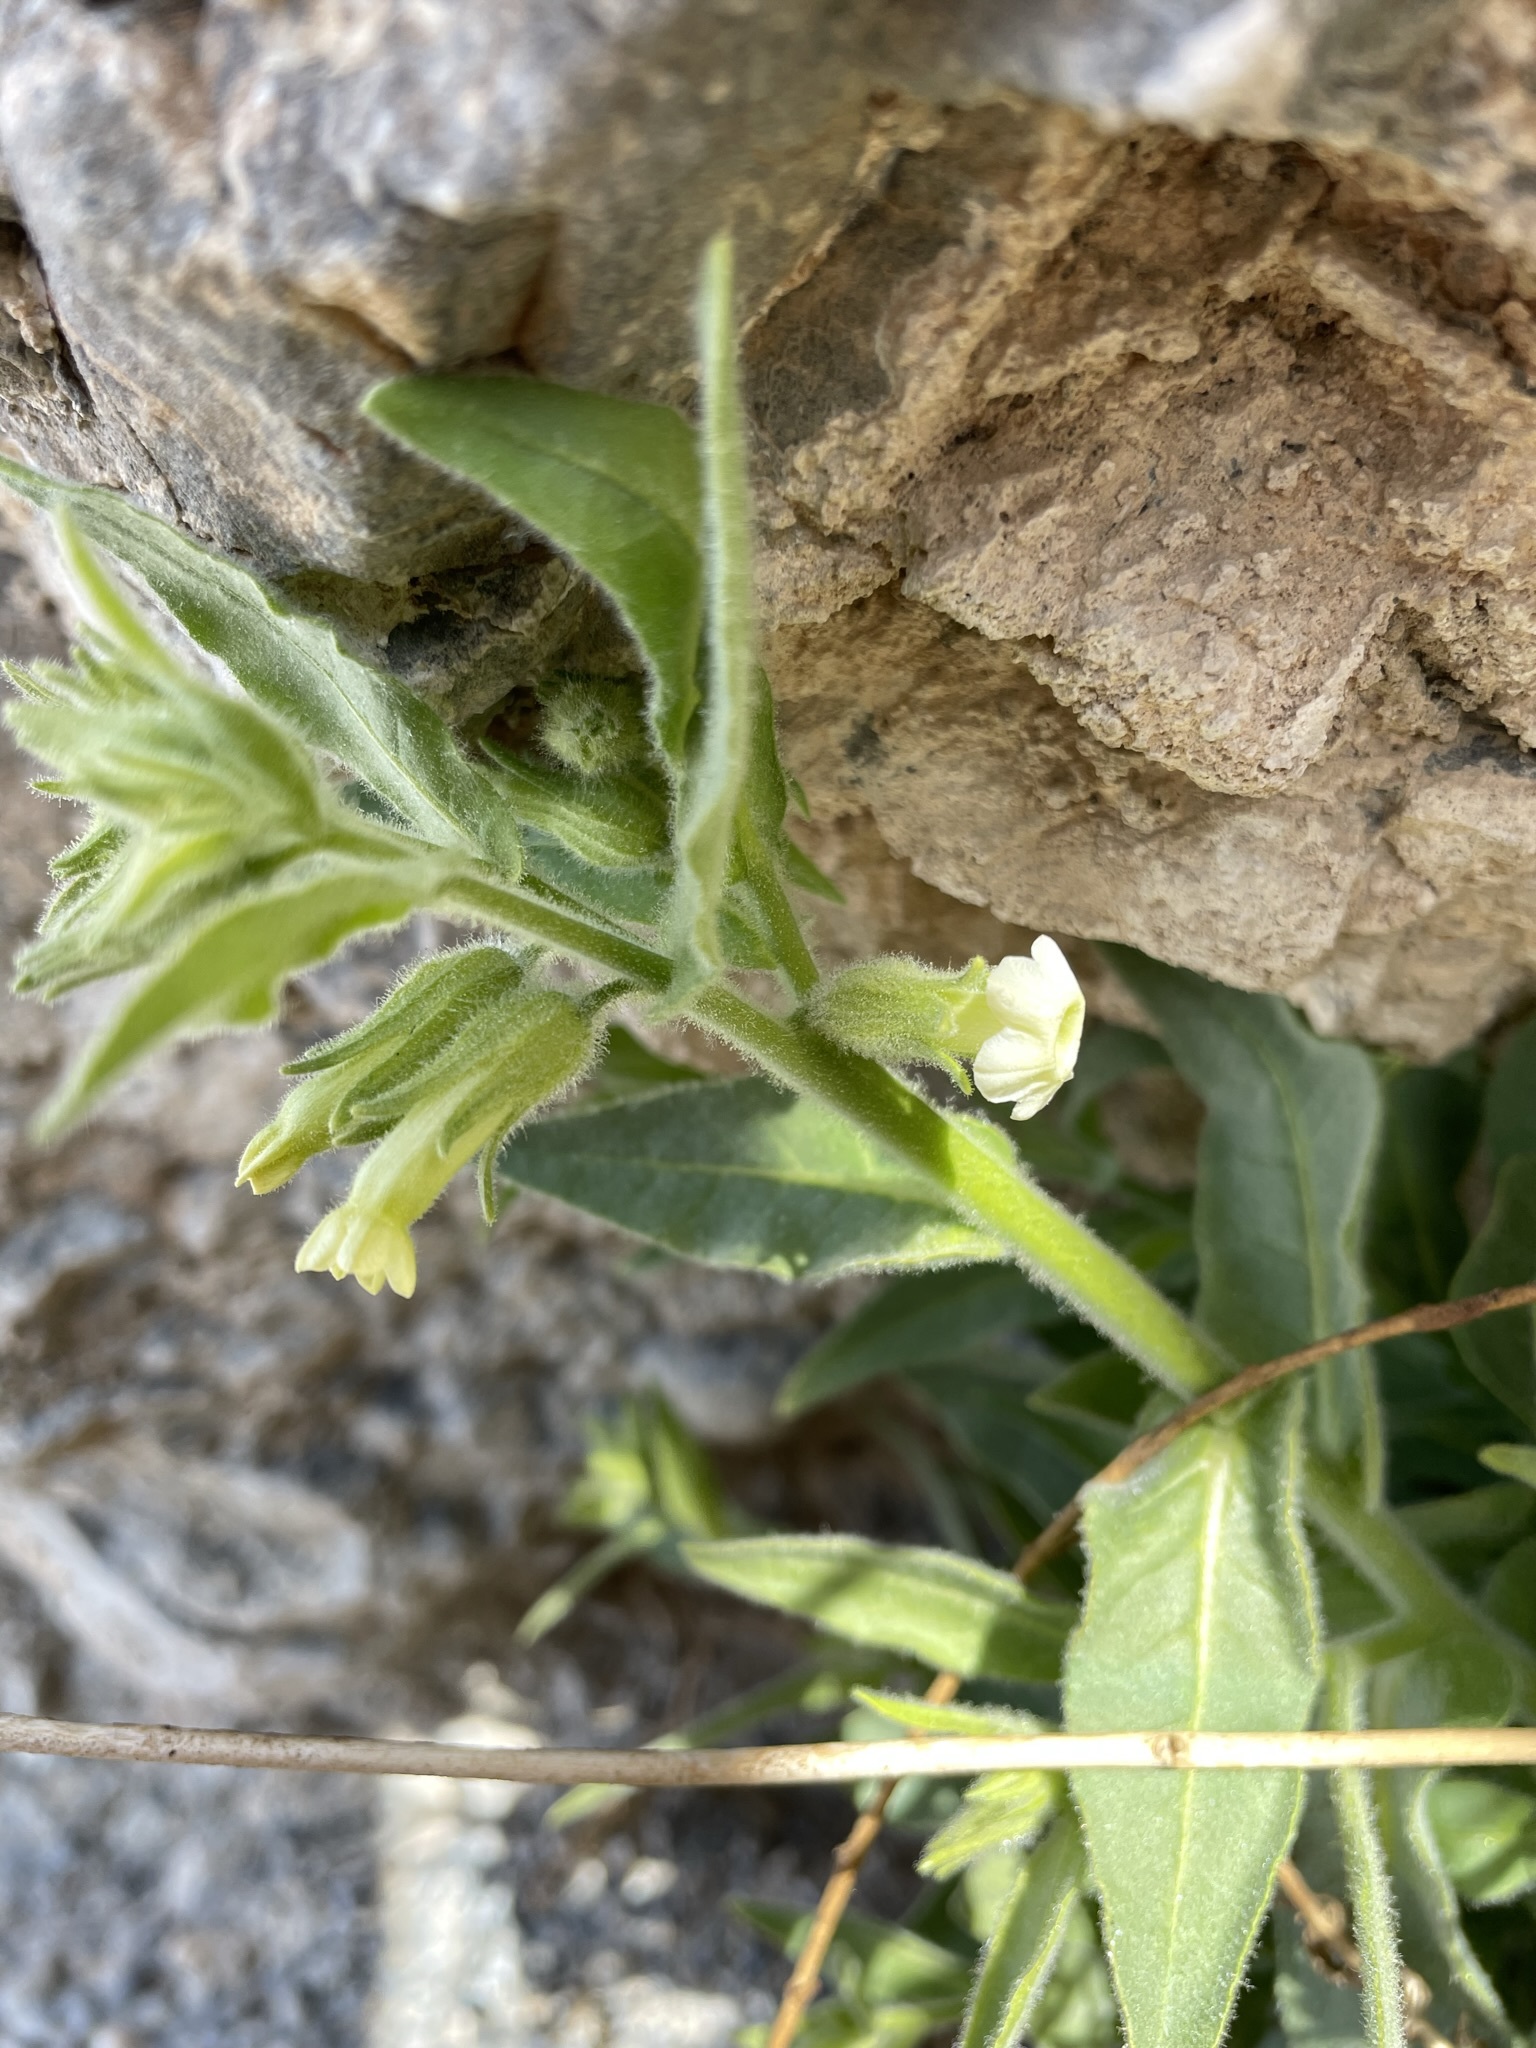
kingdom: Plantae
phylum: Tracheophyta
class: Magnoliopsida
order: Solanales
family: Solanaceae
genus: Nicotiana
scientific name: Nicotiana obtusifolia
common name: Desert tobacco
